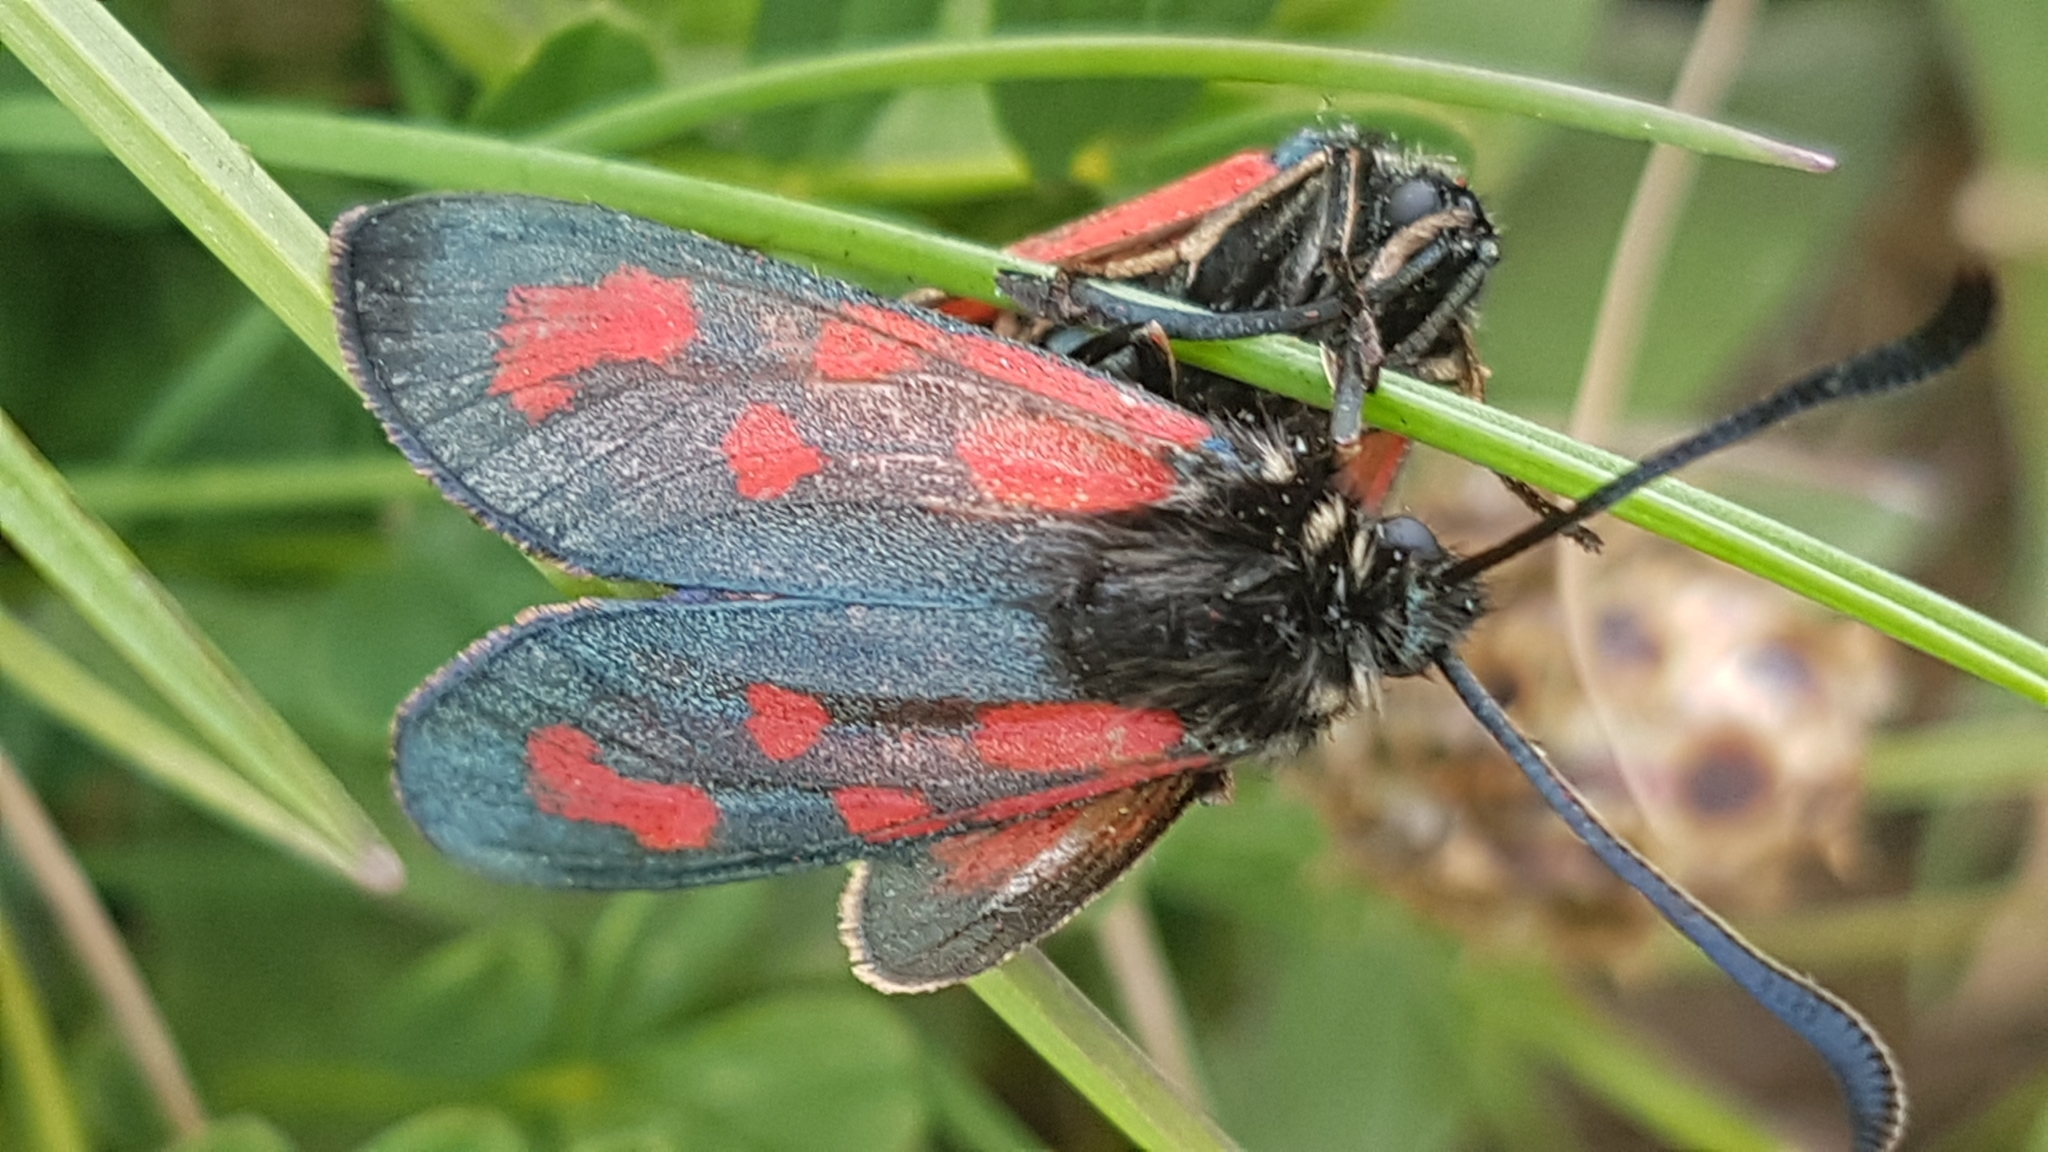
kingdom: Animalia
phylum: Arthropoda
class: Insecta
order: Lepidoptera
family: Zygaenidae
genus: Zygaena
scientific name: Zygaena loti
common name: Slender scotch burnet
